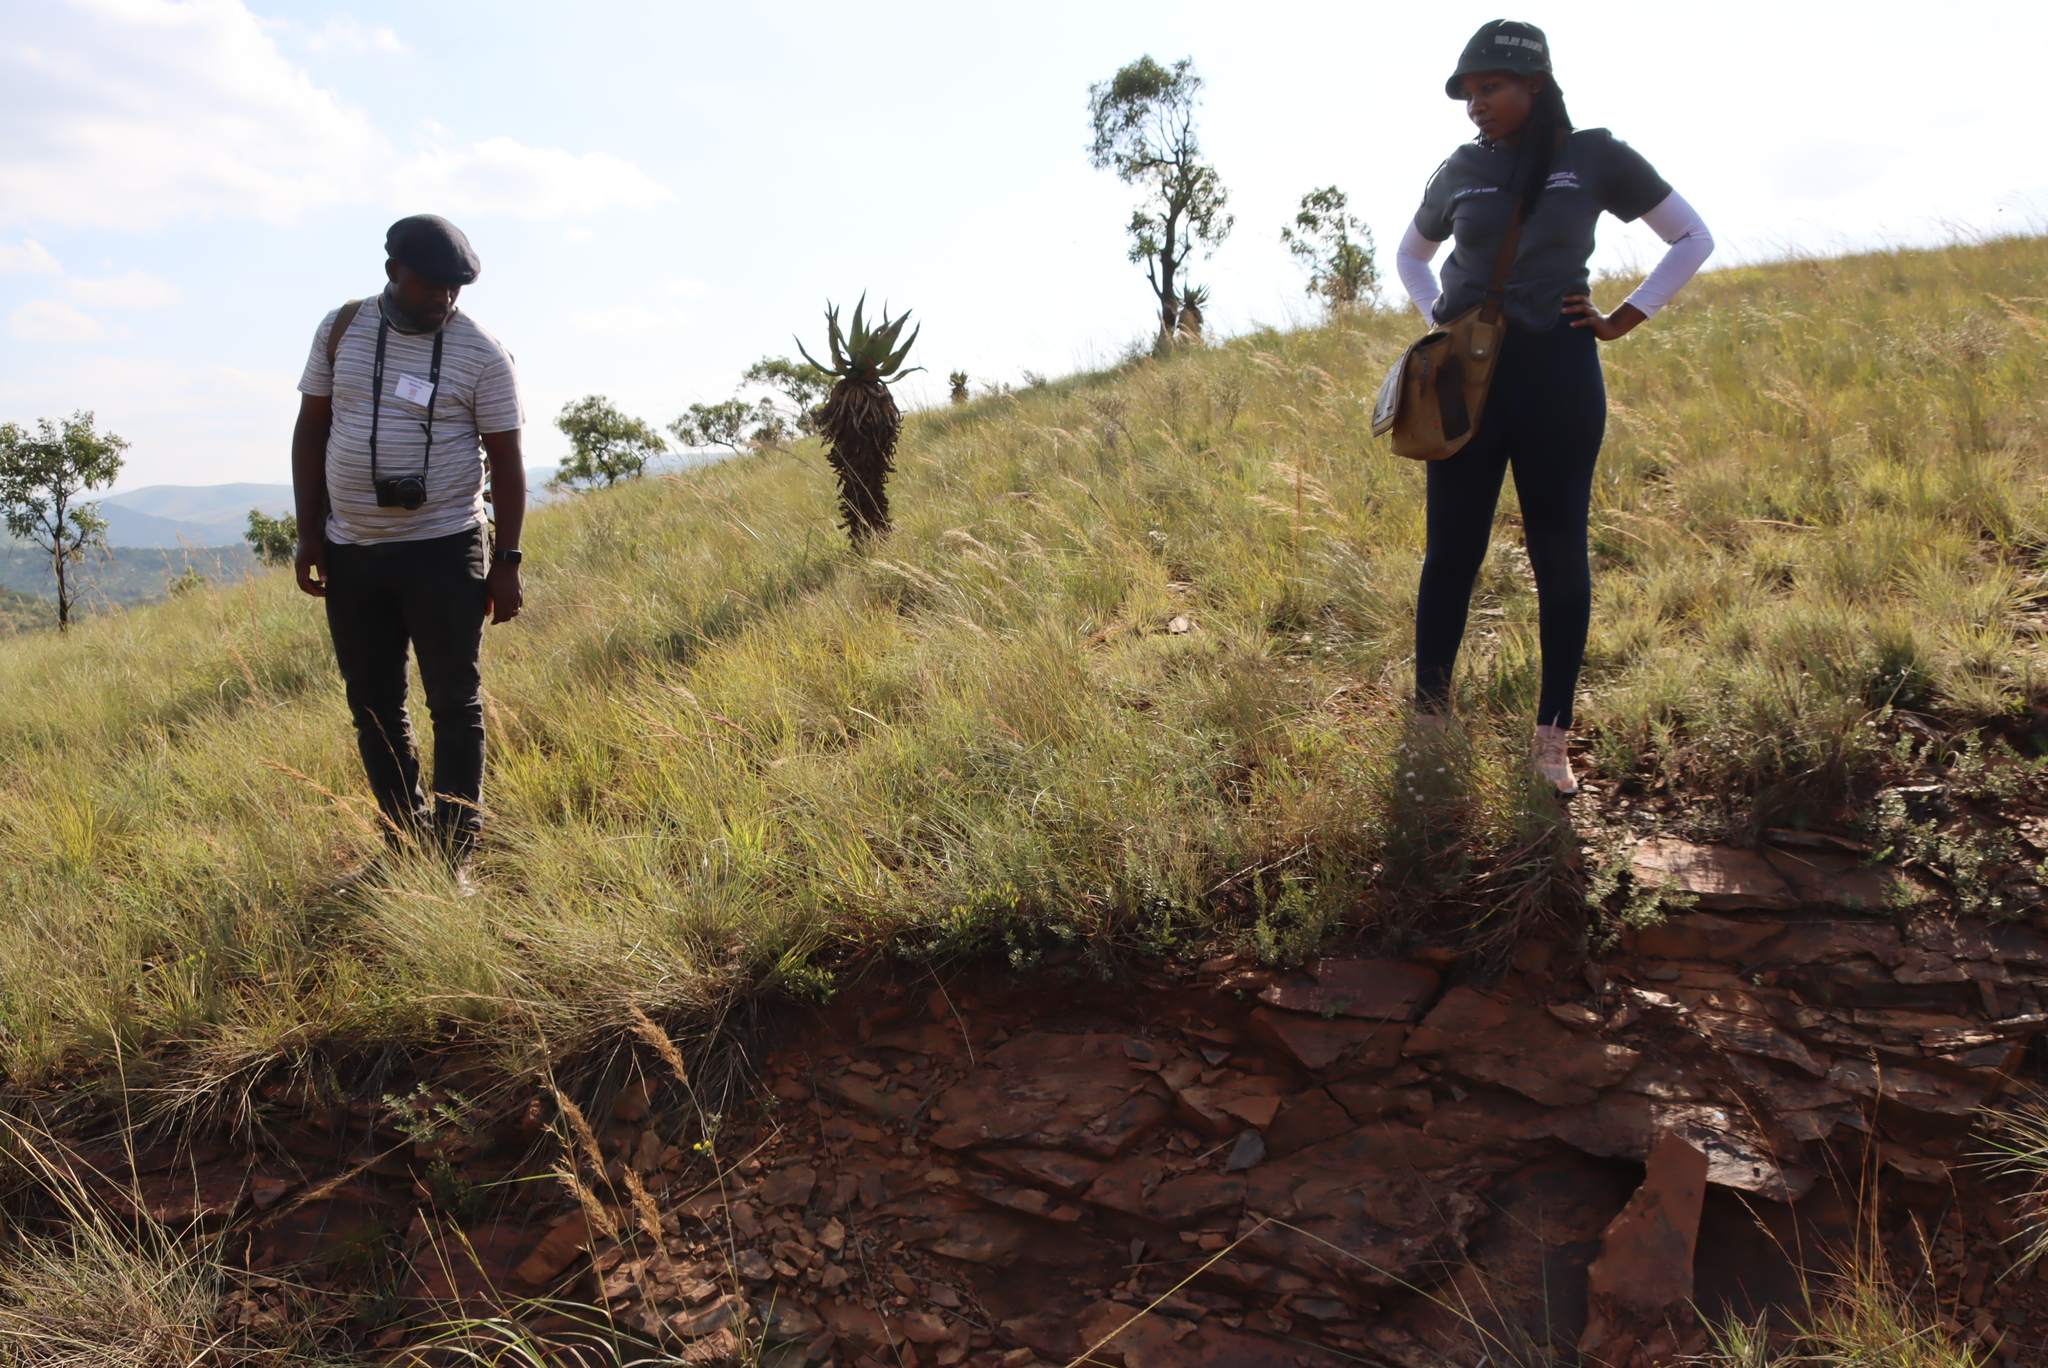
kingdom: Plantae
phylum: Tracheophyta
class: Liliopsida
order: Asparagales
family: Asphodelaceae
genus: Haworthiopsis
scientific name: Haworthiopsis limifolia
